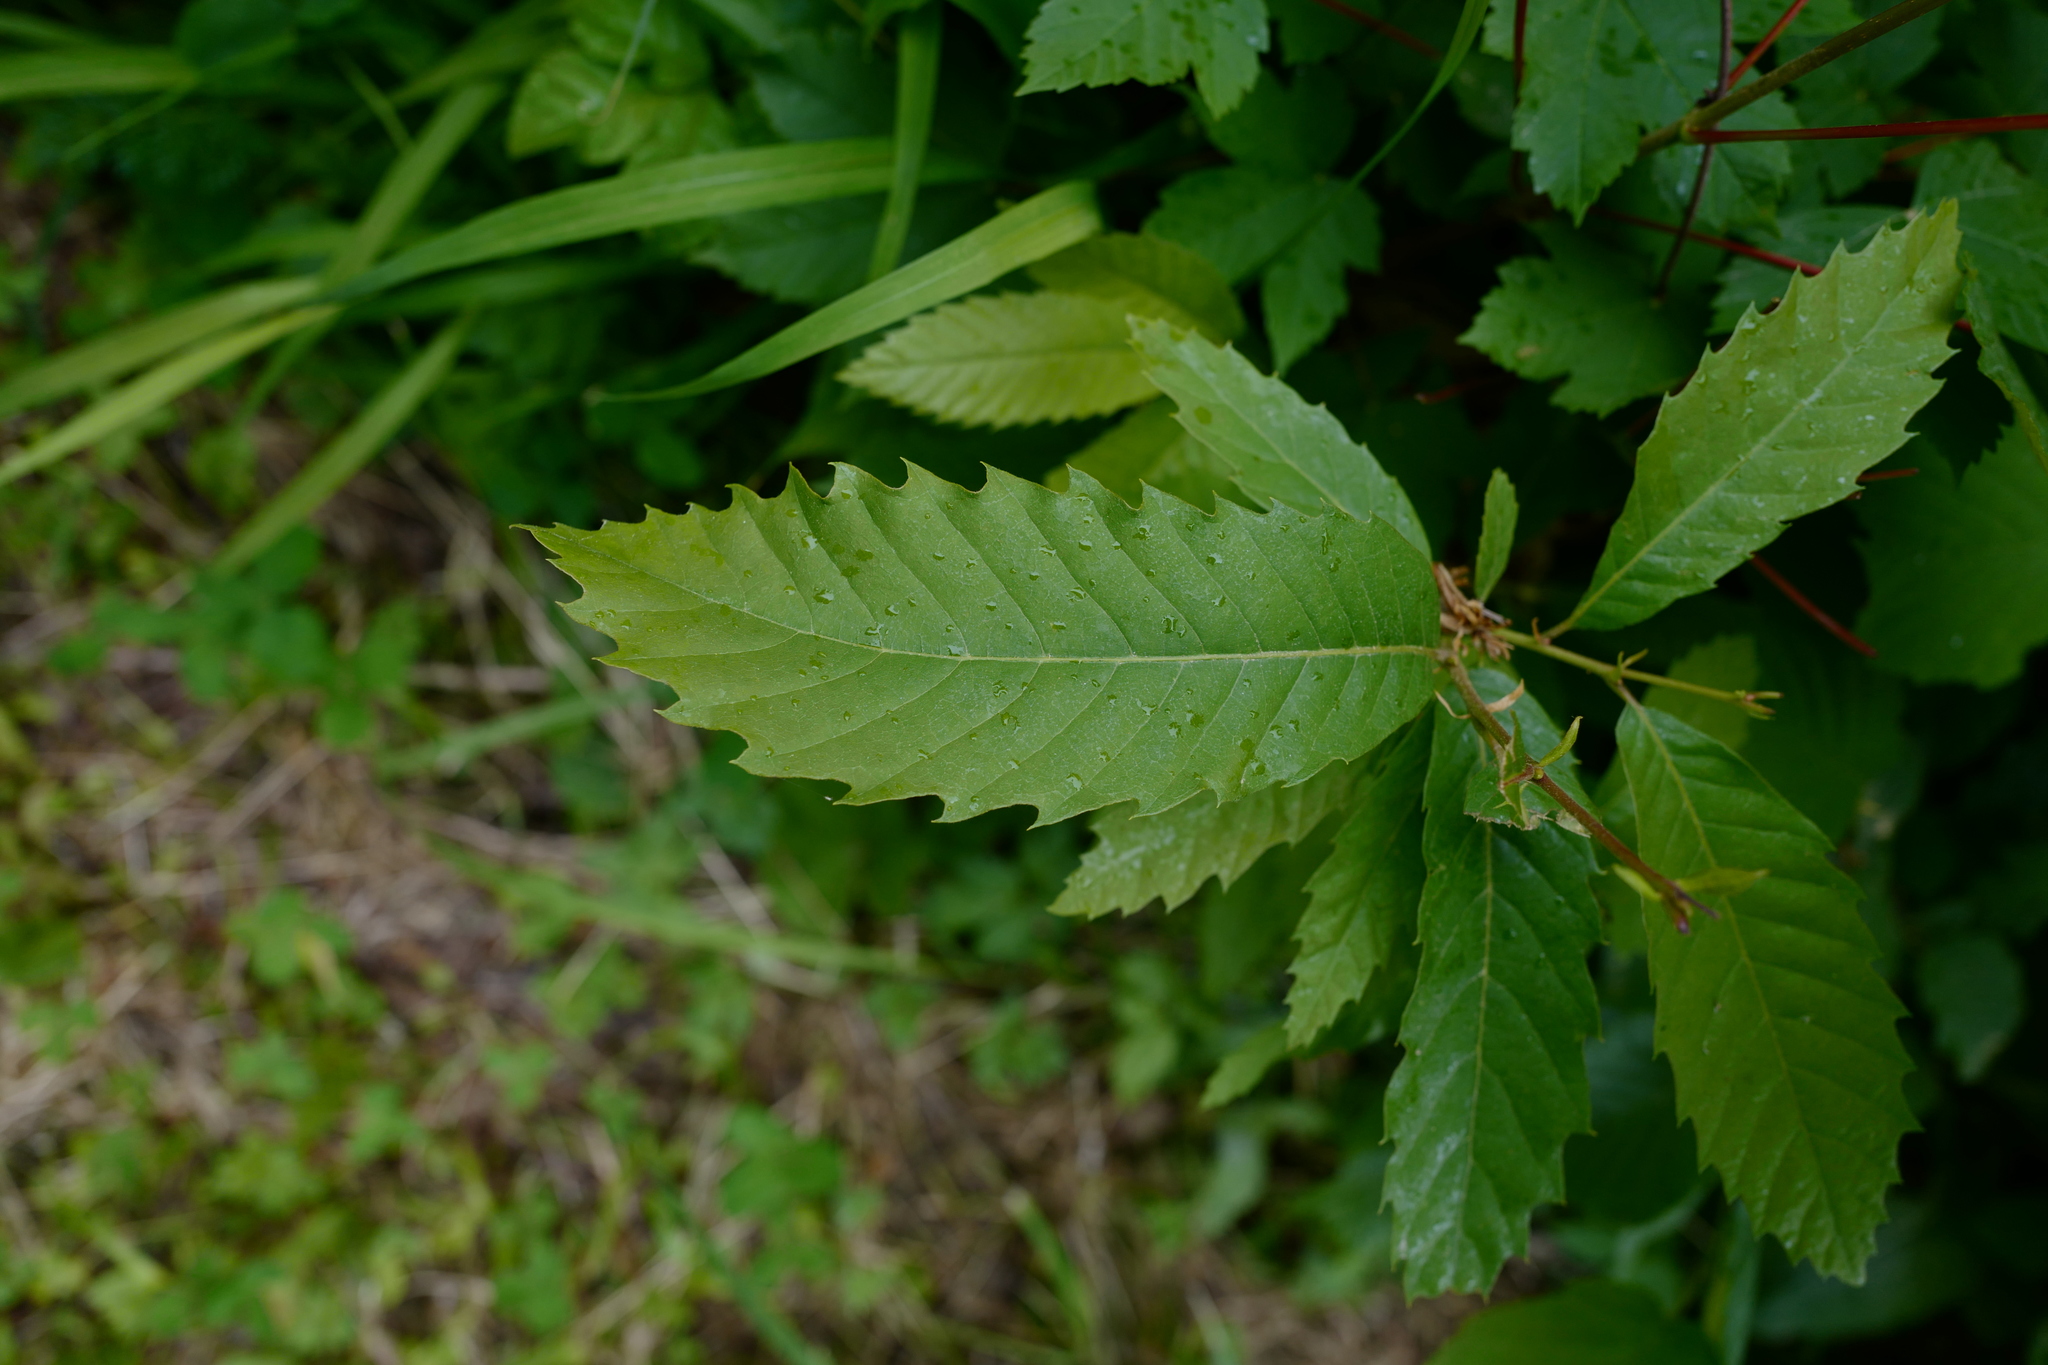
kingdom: Plantae
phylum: Tracheophyta
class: Magnoliopsida
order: Fagales
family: Fagaceae
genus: Castanea
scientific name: Castanea sativa
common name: Sweet chestnut
